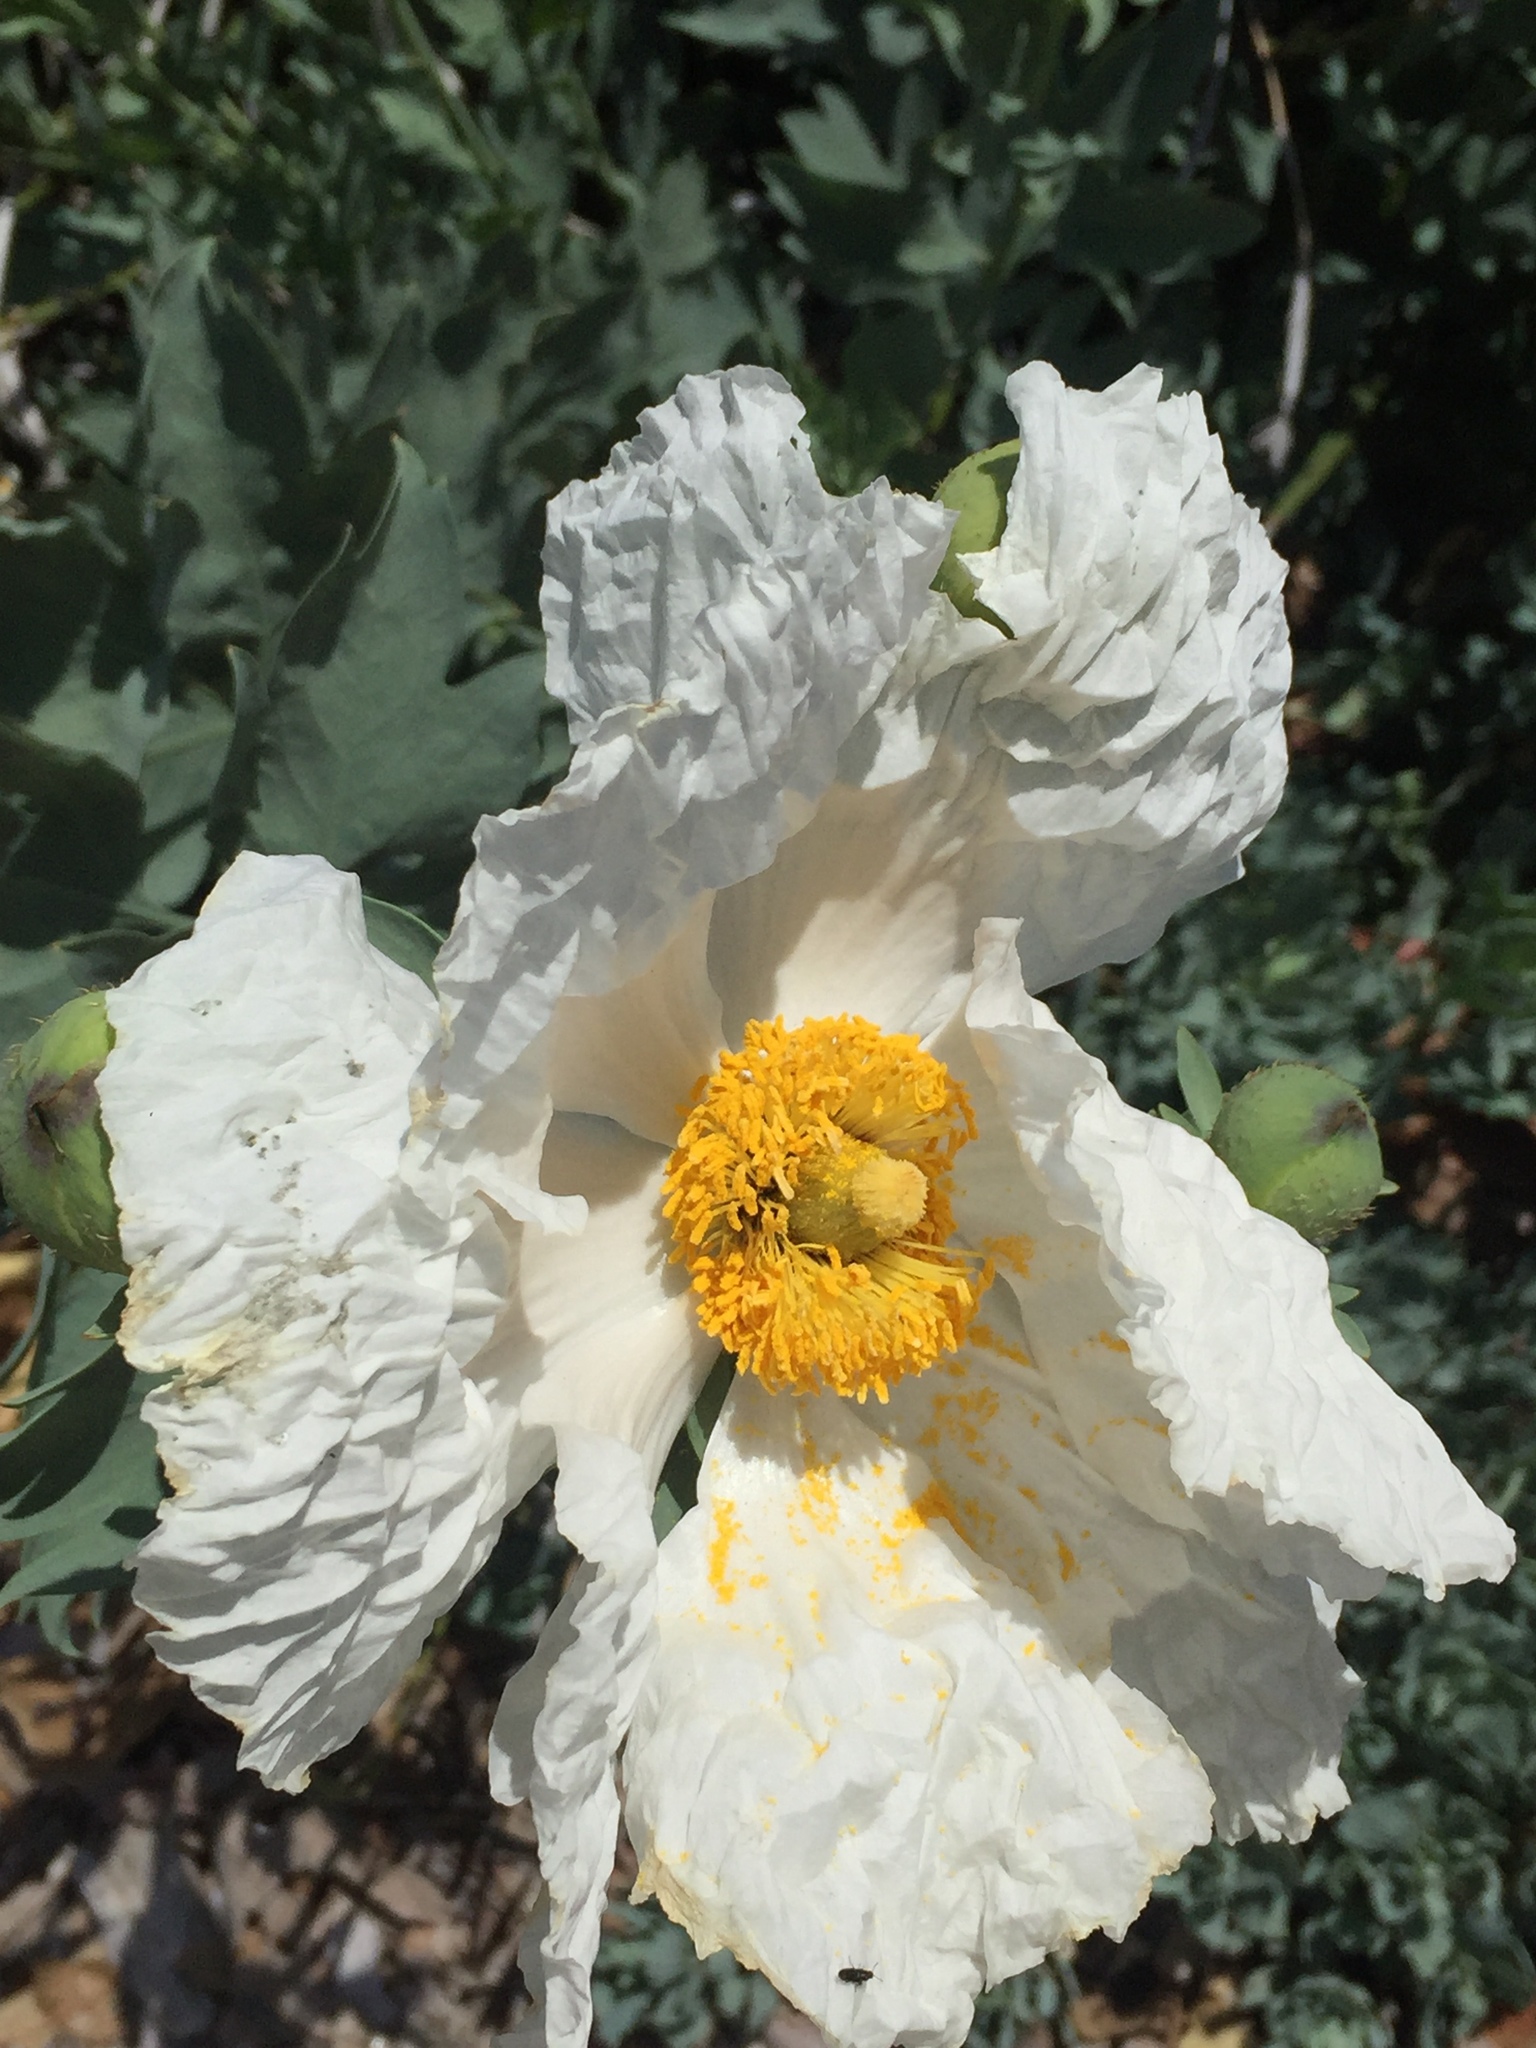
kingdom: Plantae
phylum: Tracheophyta
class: Magnoliopsida
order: Ranunculales
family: Papaveraceae
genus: Romneya
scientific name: Romneya coulteri
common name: California tree-poppy
